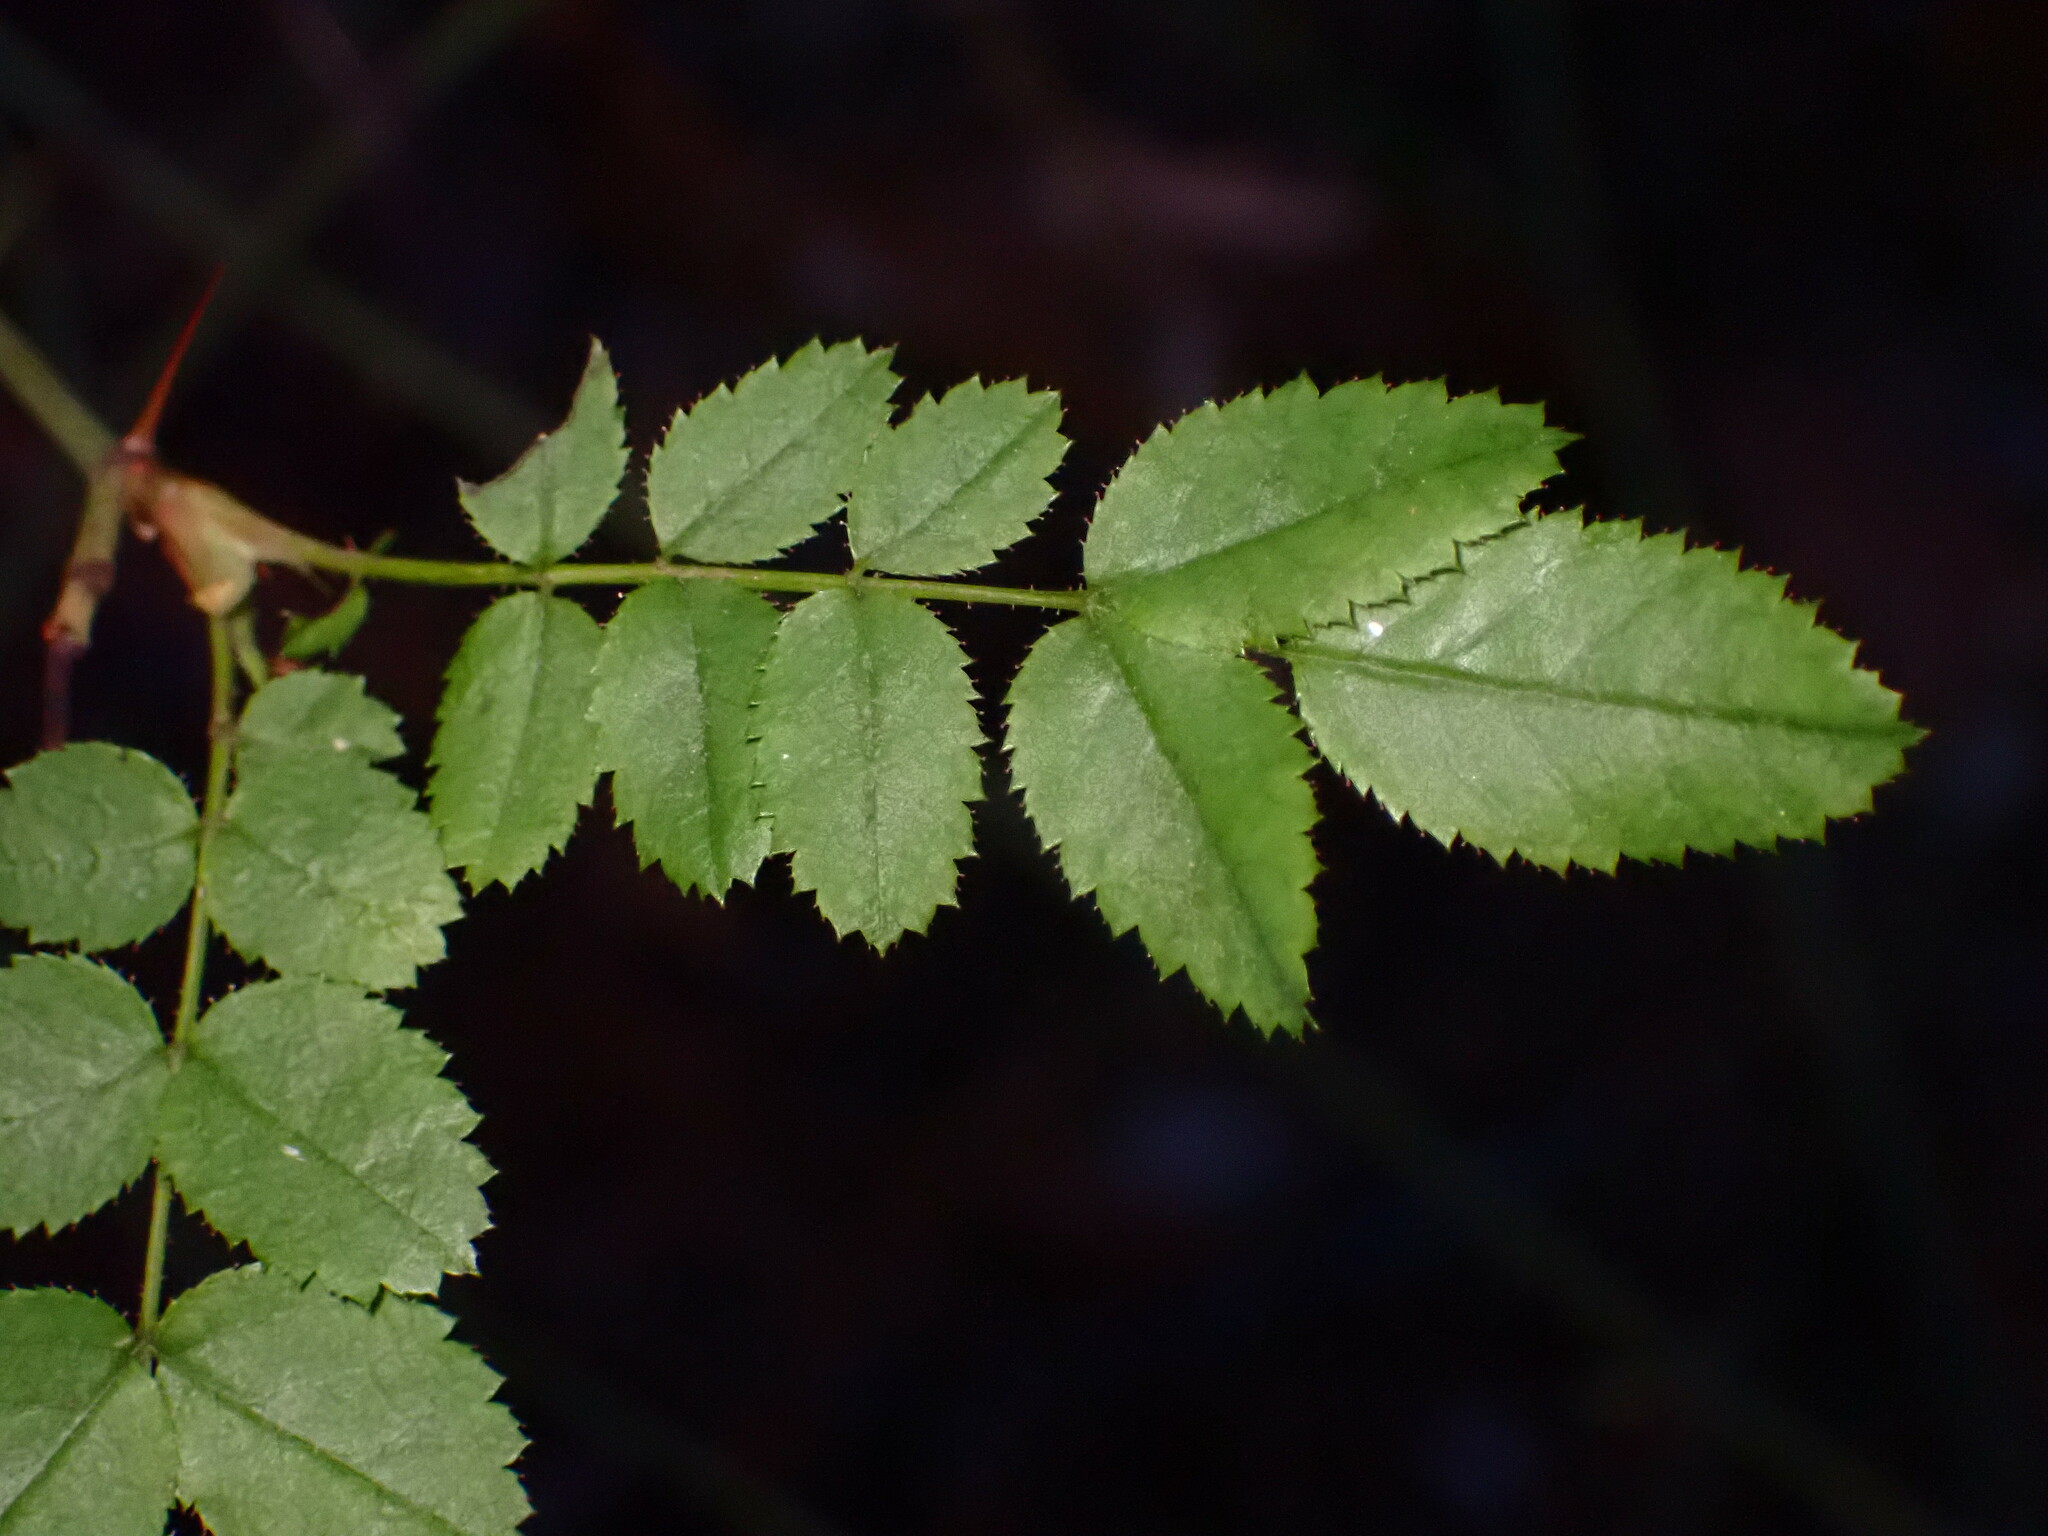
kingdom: Animalia
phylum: Arthropoda
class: Insecta
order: Hymenoptera
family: Cynipidae
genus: Diplolepis
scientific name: Diplolepis bicolor
